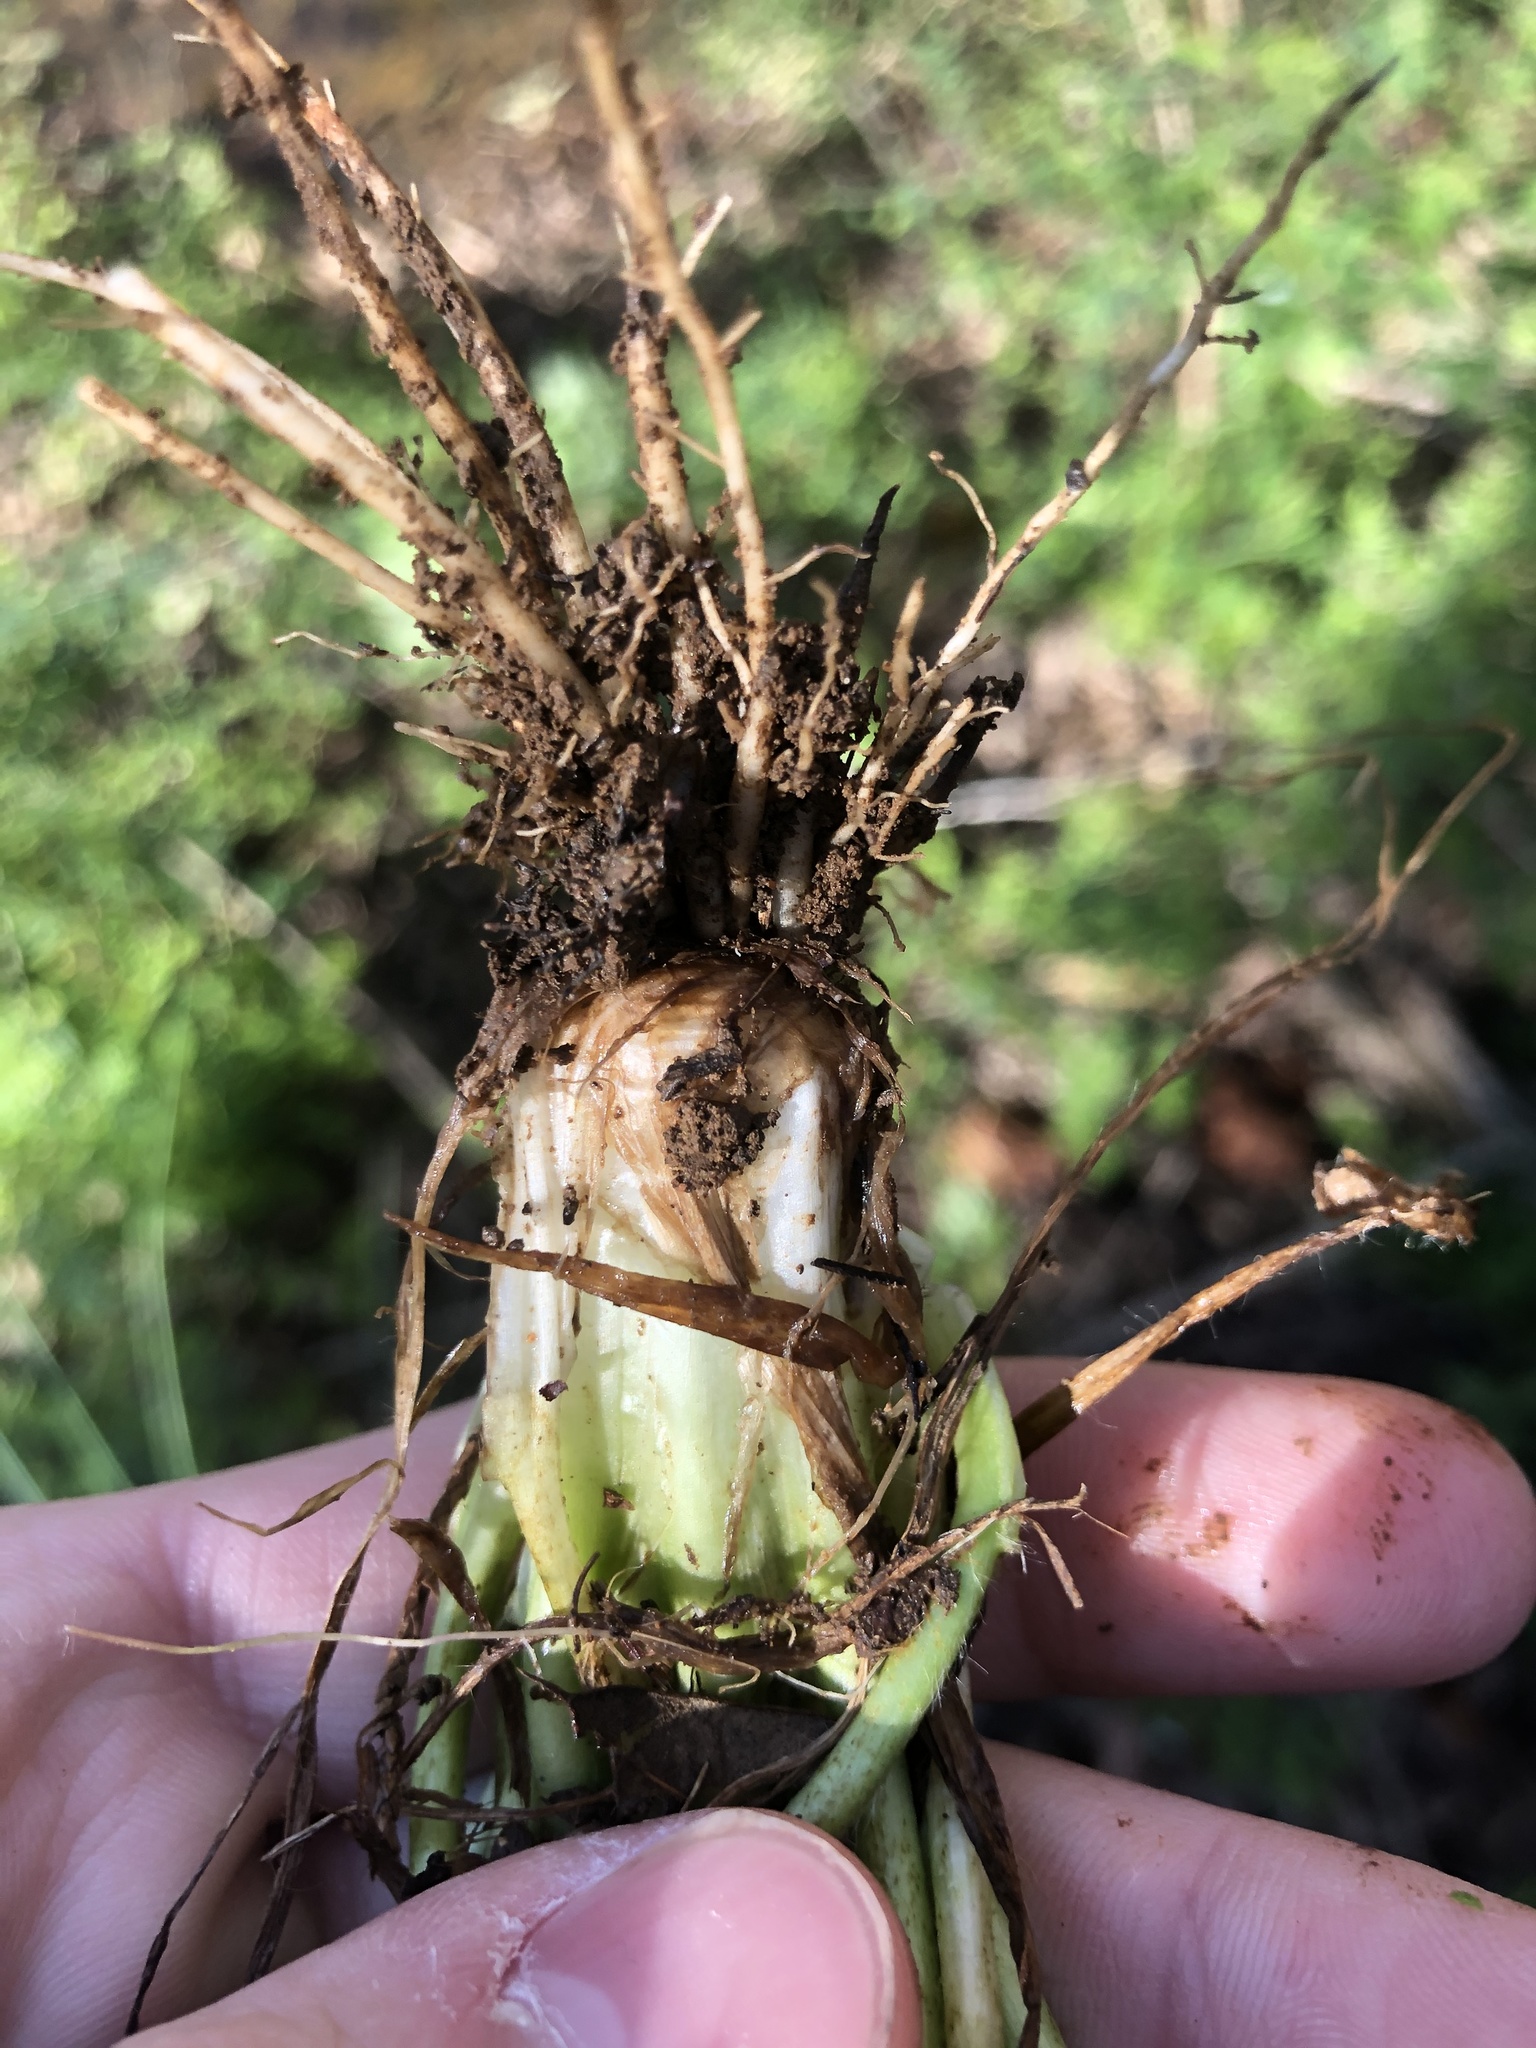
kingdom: Plantae
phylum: Tracheophyta
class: Magnoliopsida
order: Ranunculales
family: Ranunculaceae
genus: Ranunculus
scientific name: Ranunculus bulbosus
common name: Bulbous buttercup
